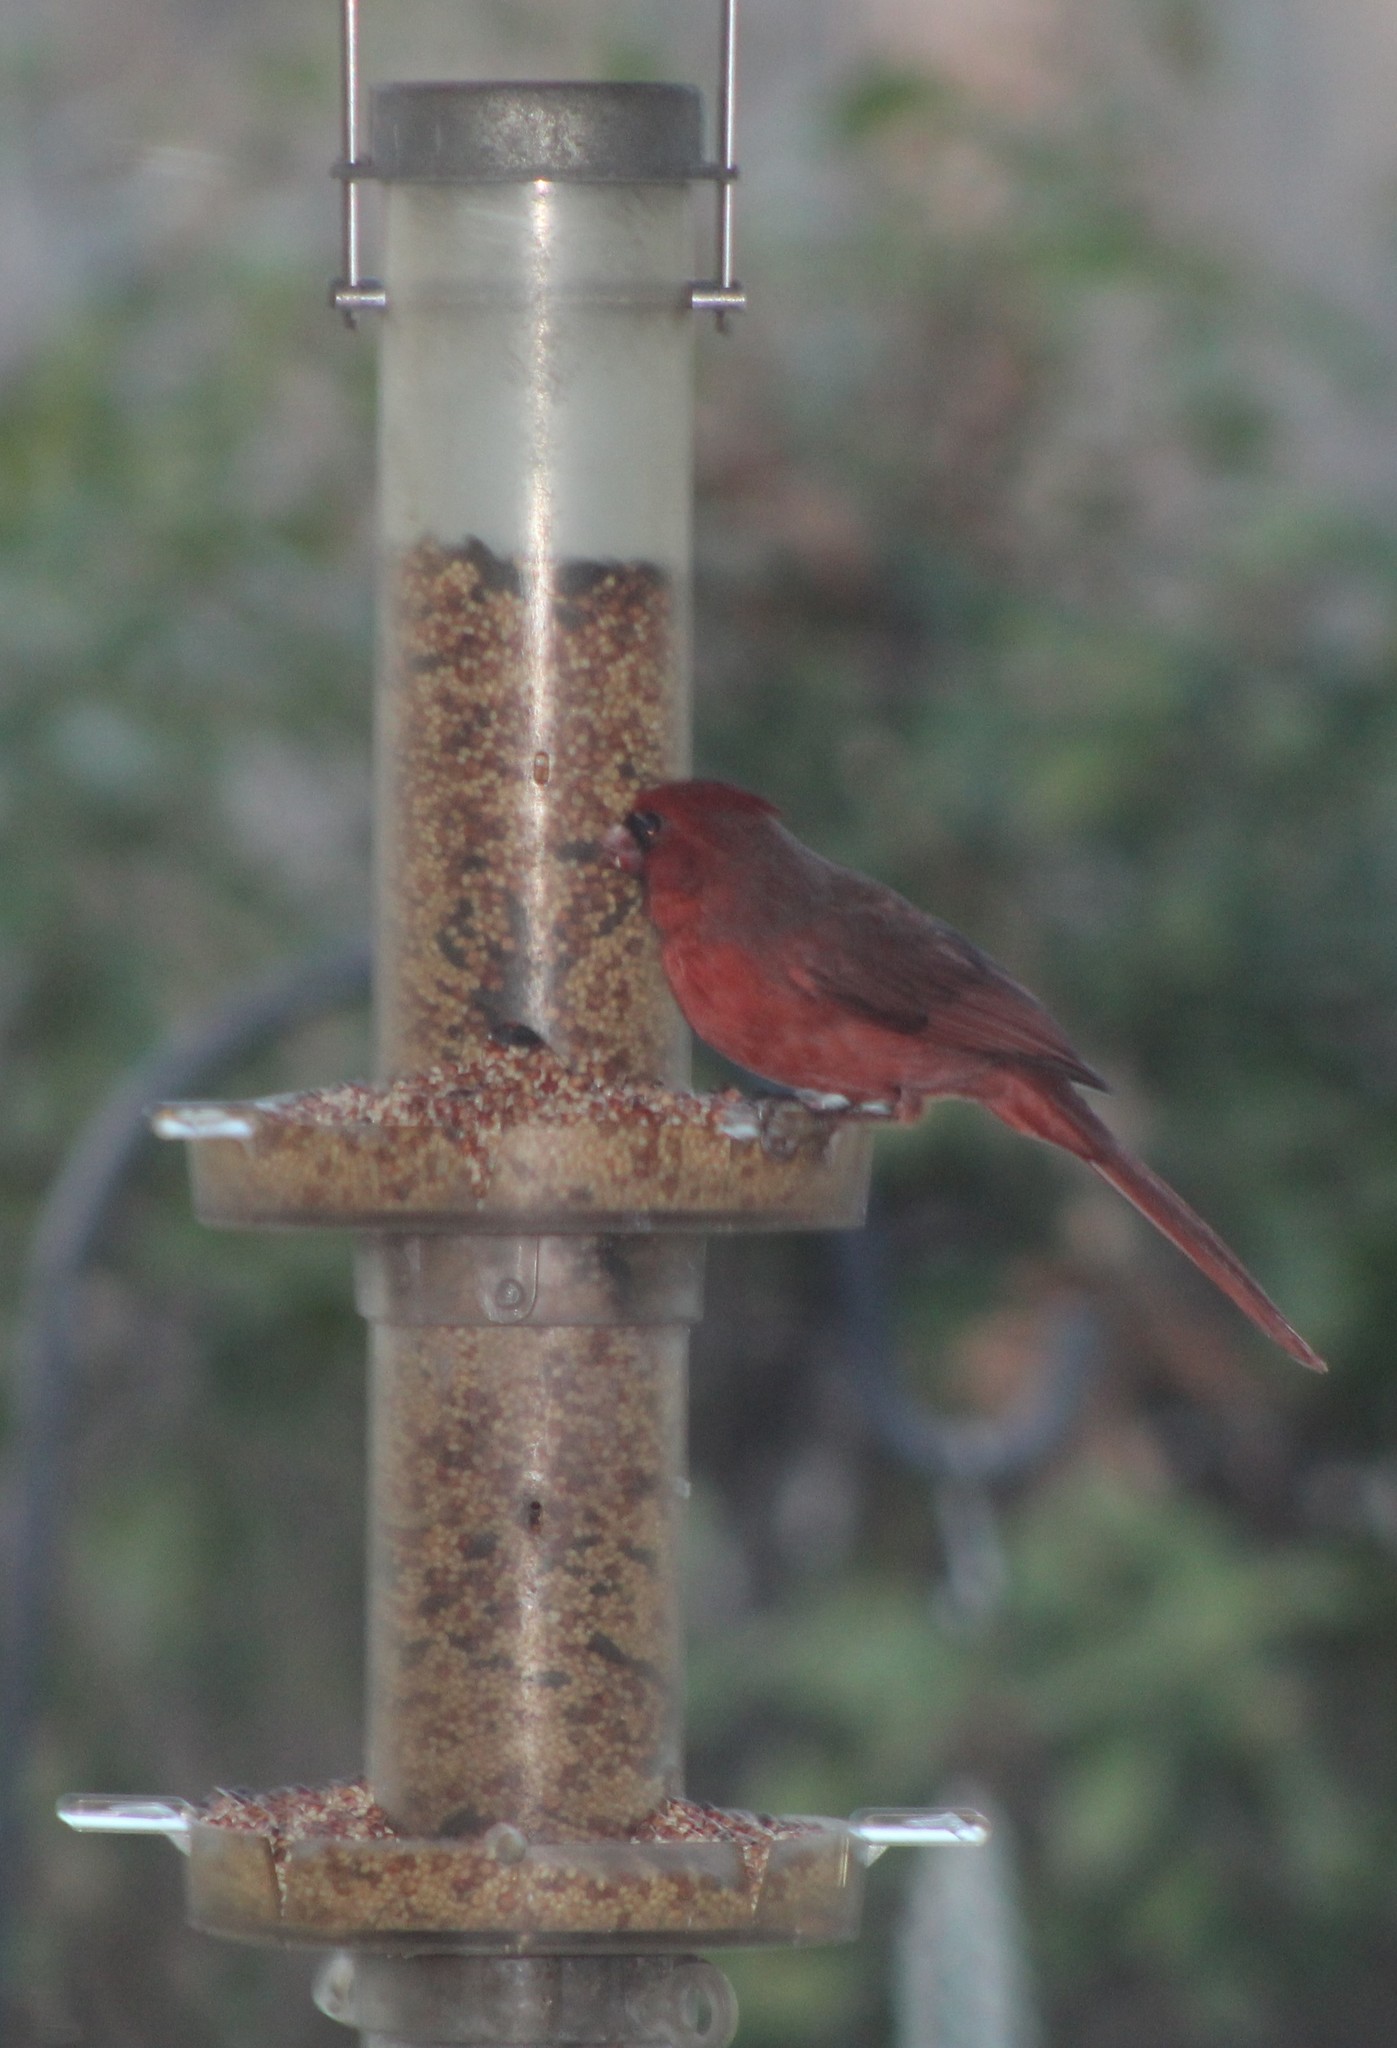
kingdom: Animalia
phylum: Chordata
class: Aves
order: Passeriformes
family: Cardinalidae
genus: Cardinalis
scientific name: Cardinalis cardinalis
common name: Northern cardinal
